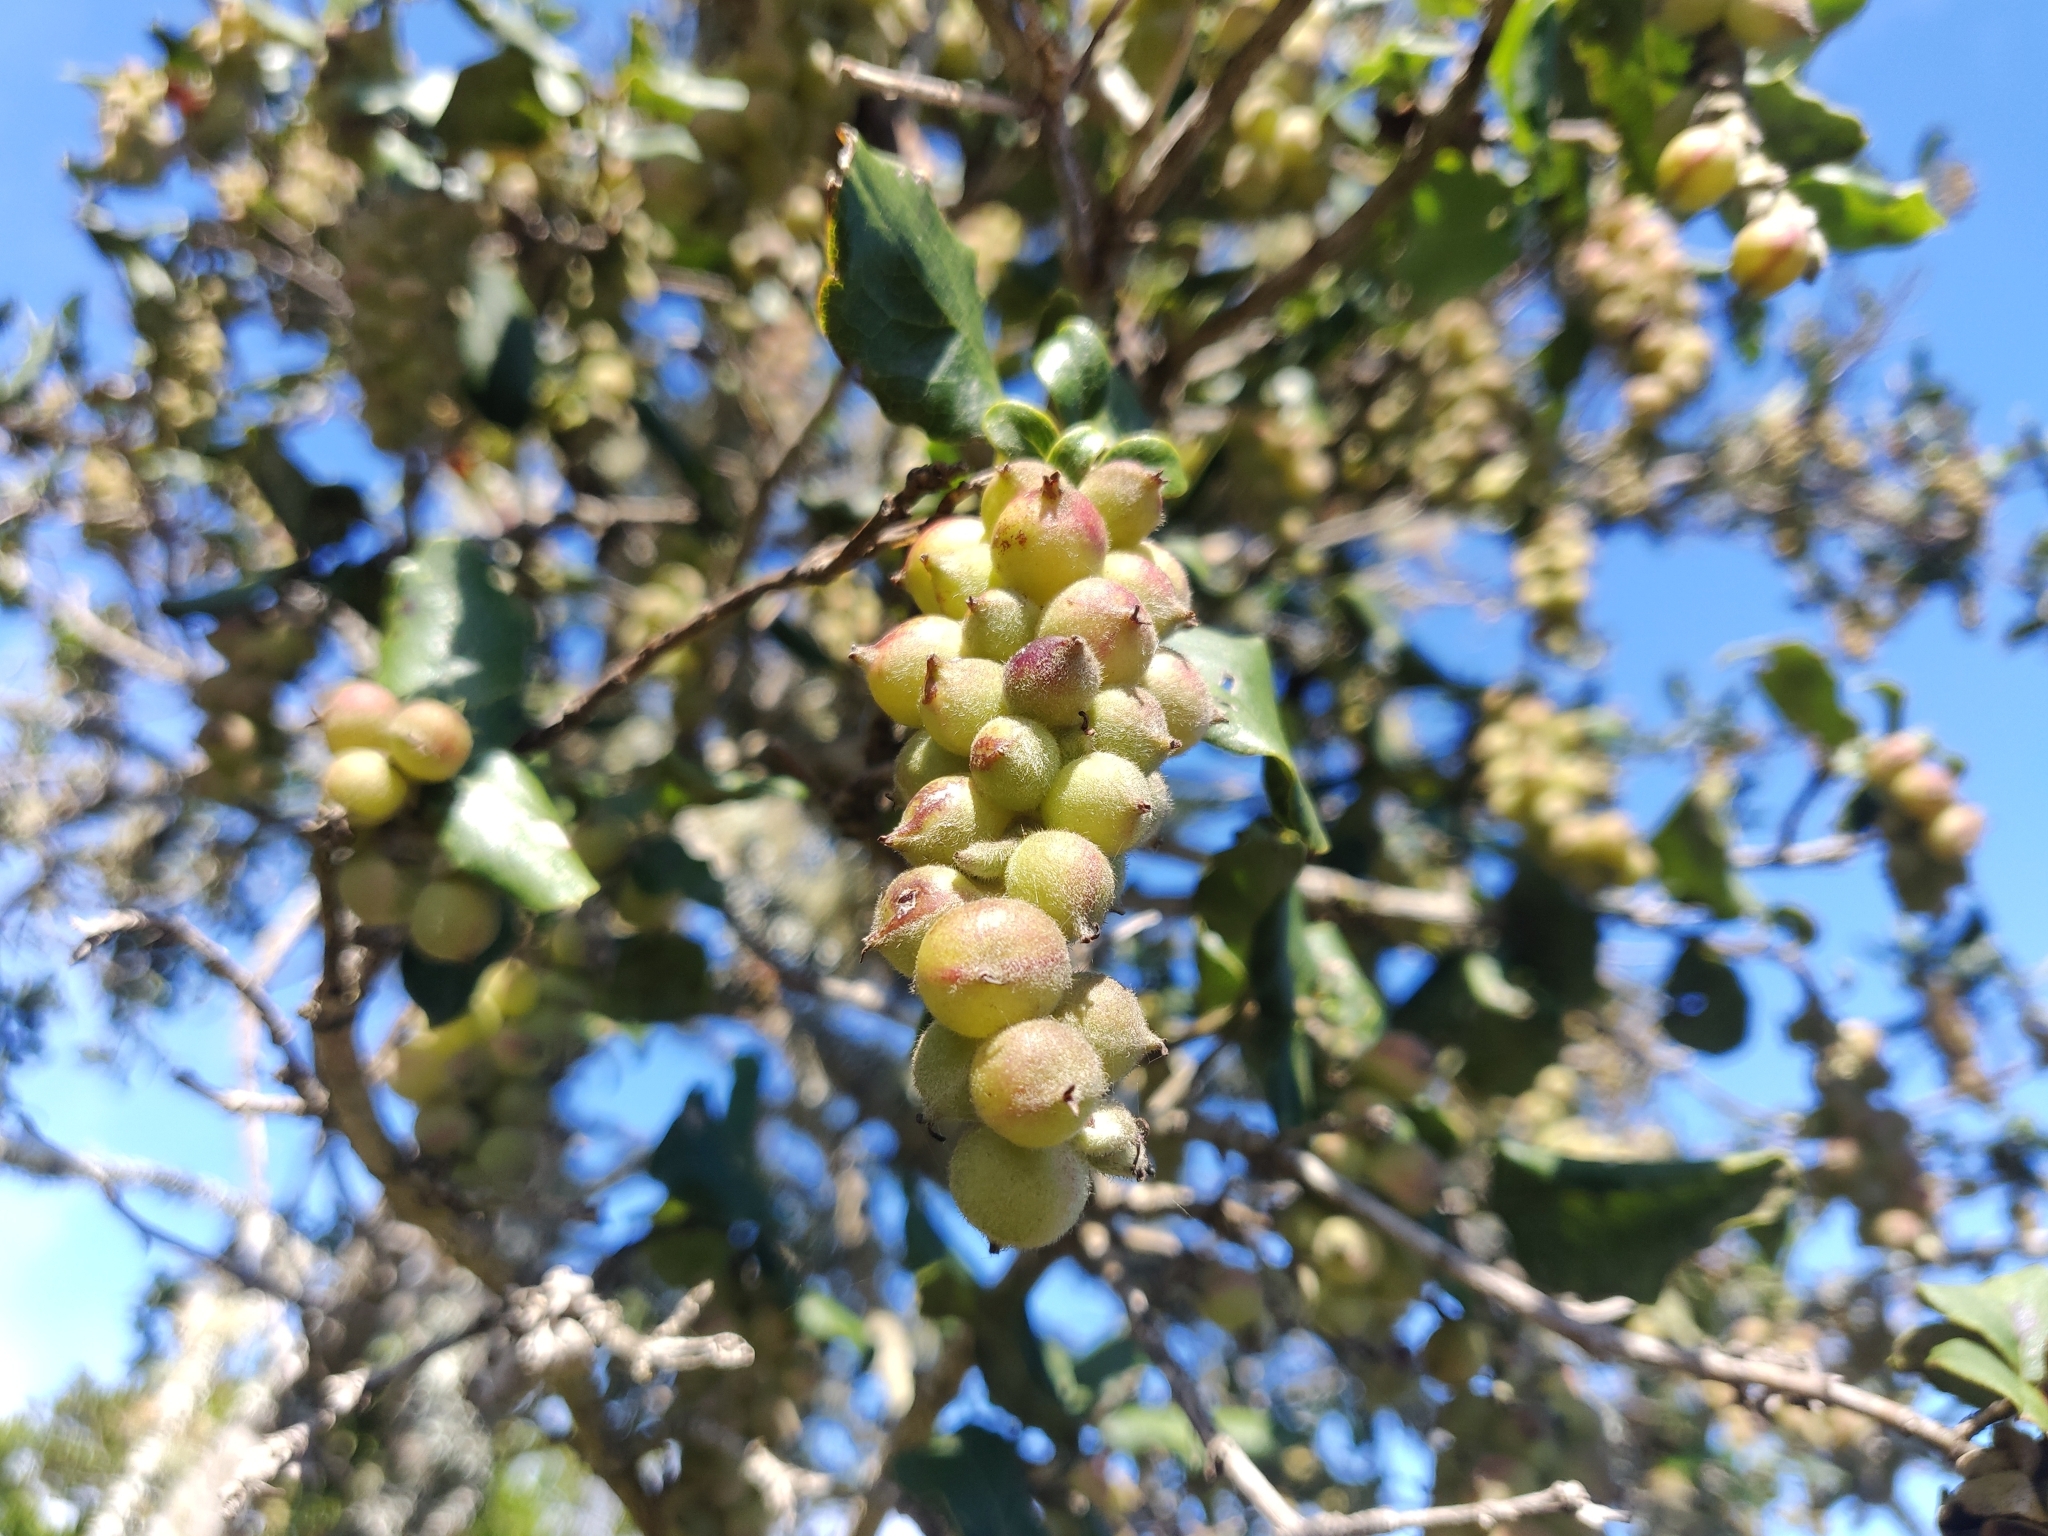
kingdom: Plantae
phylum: Tracheophyta
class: Magnoliopsida
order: Garryales
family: Garryaceae
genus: Garrya
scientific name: Garrya elliptica
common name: Silk-tassel
